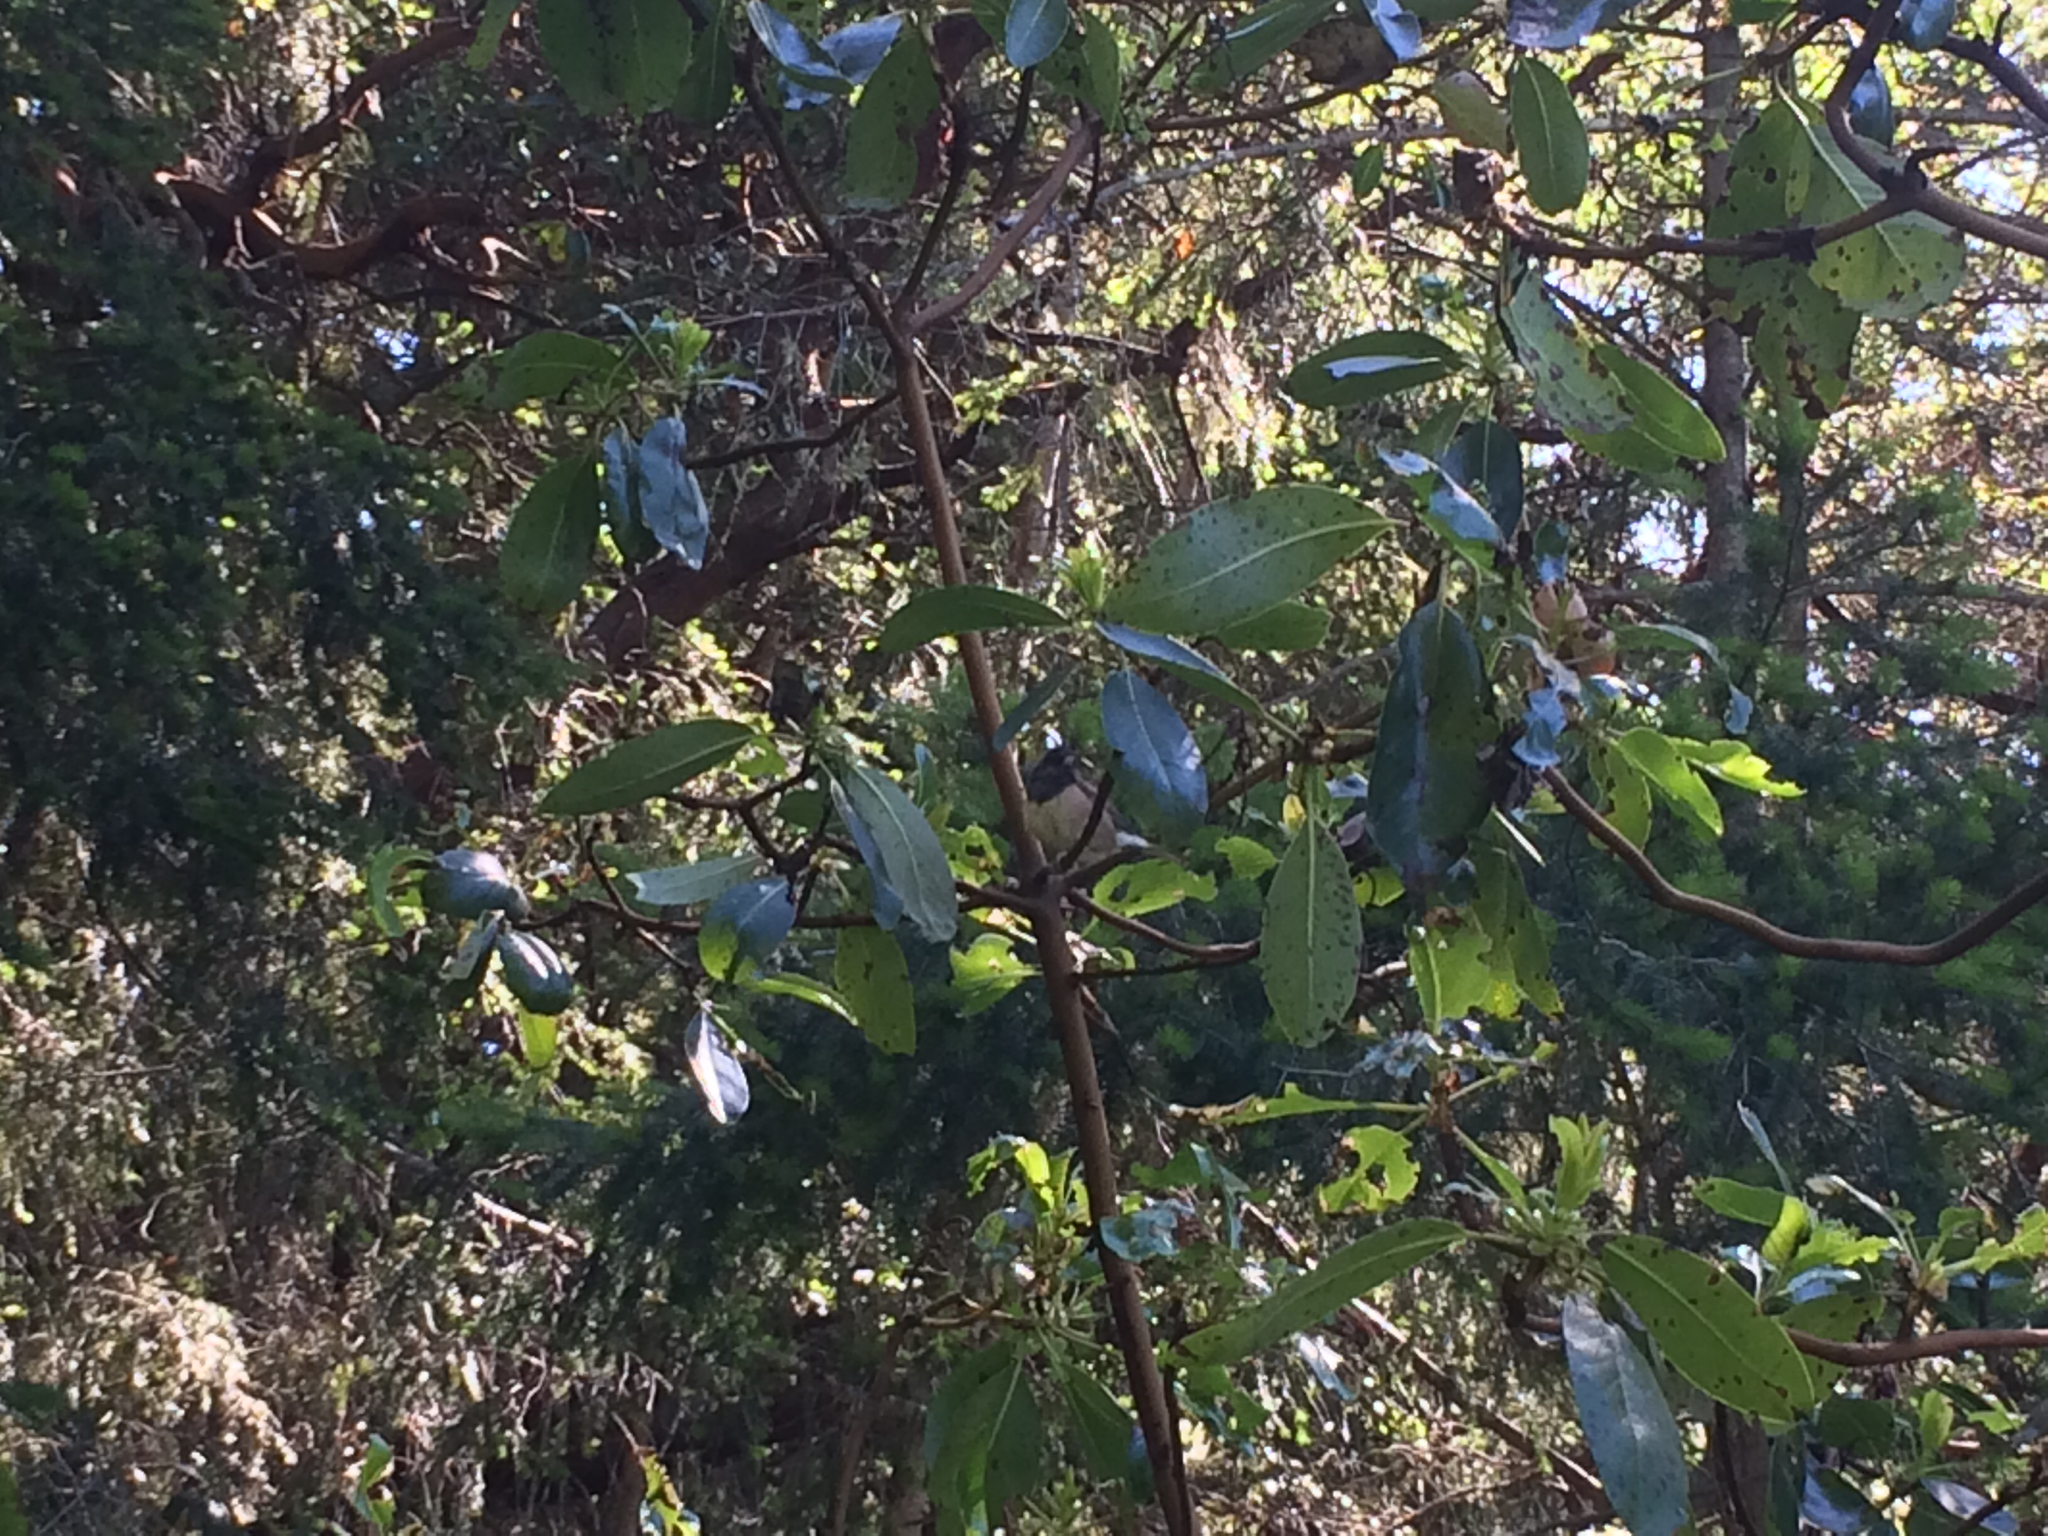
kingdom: Animalia
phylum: Chordata
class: Aves
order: Passeriformes
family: Passerellidae
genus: Junco
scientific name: Junco hyemalis
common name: Dark-eyed junco
